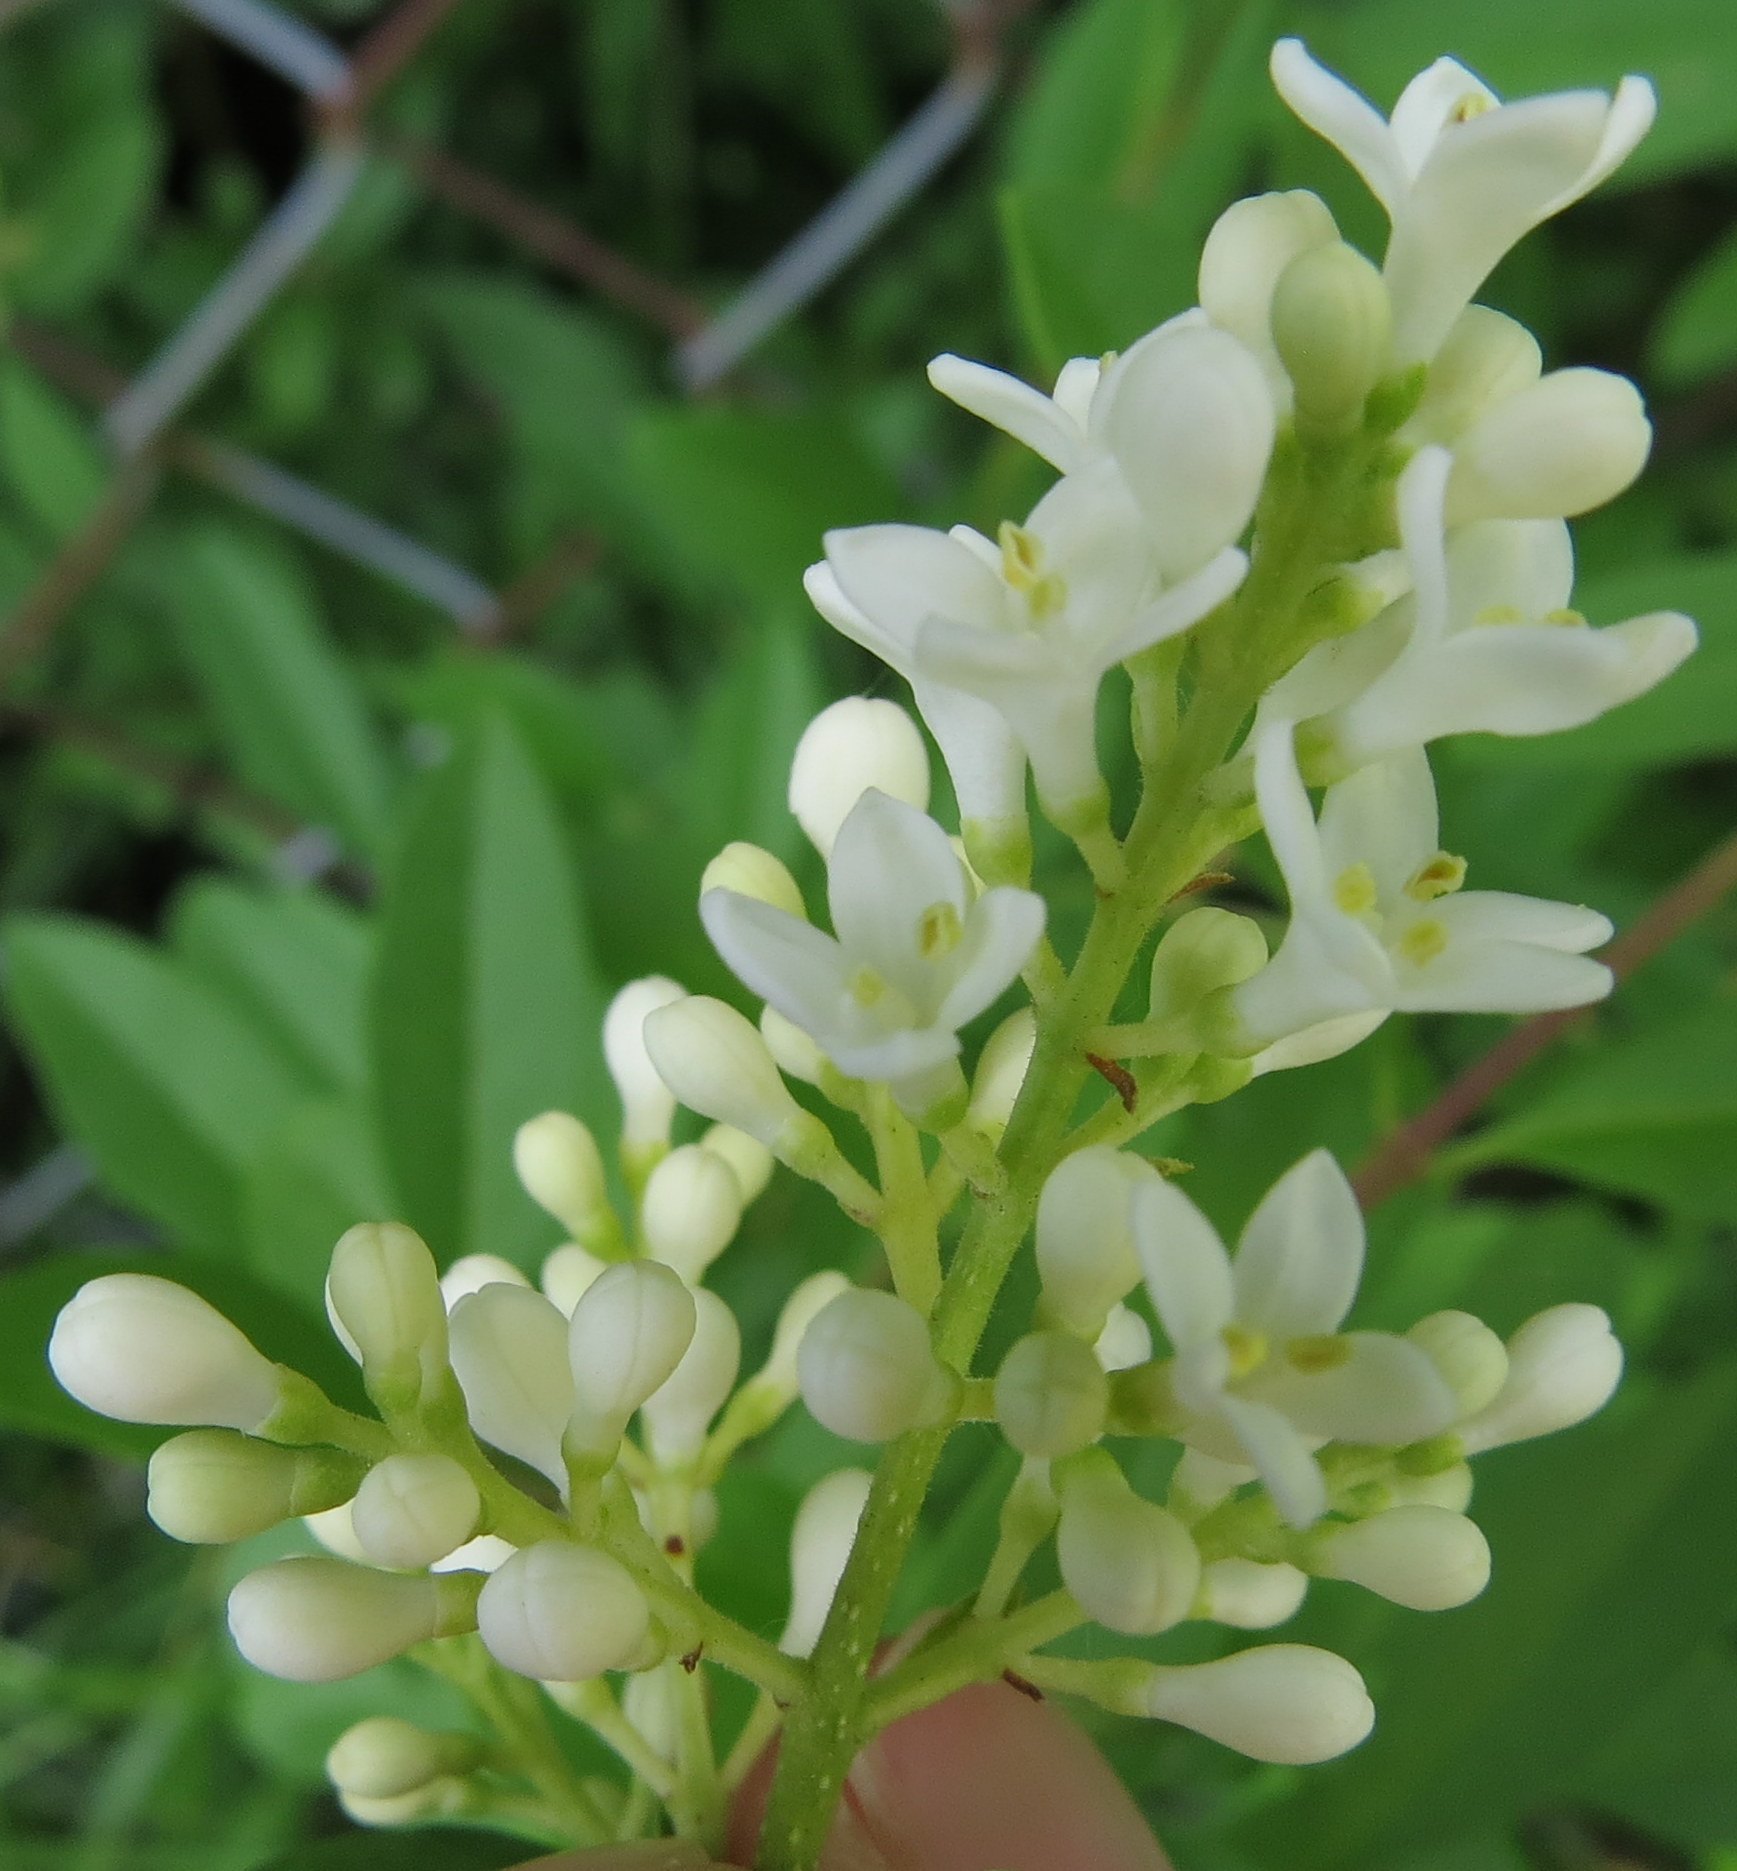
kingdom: Plantae
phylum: Tracheophyta
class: Magnoliopsida
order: Lamiales
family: Oleaceae
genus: Ligustrum
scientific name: Ligustrum vulgare
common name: Wild privet
